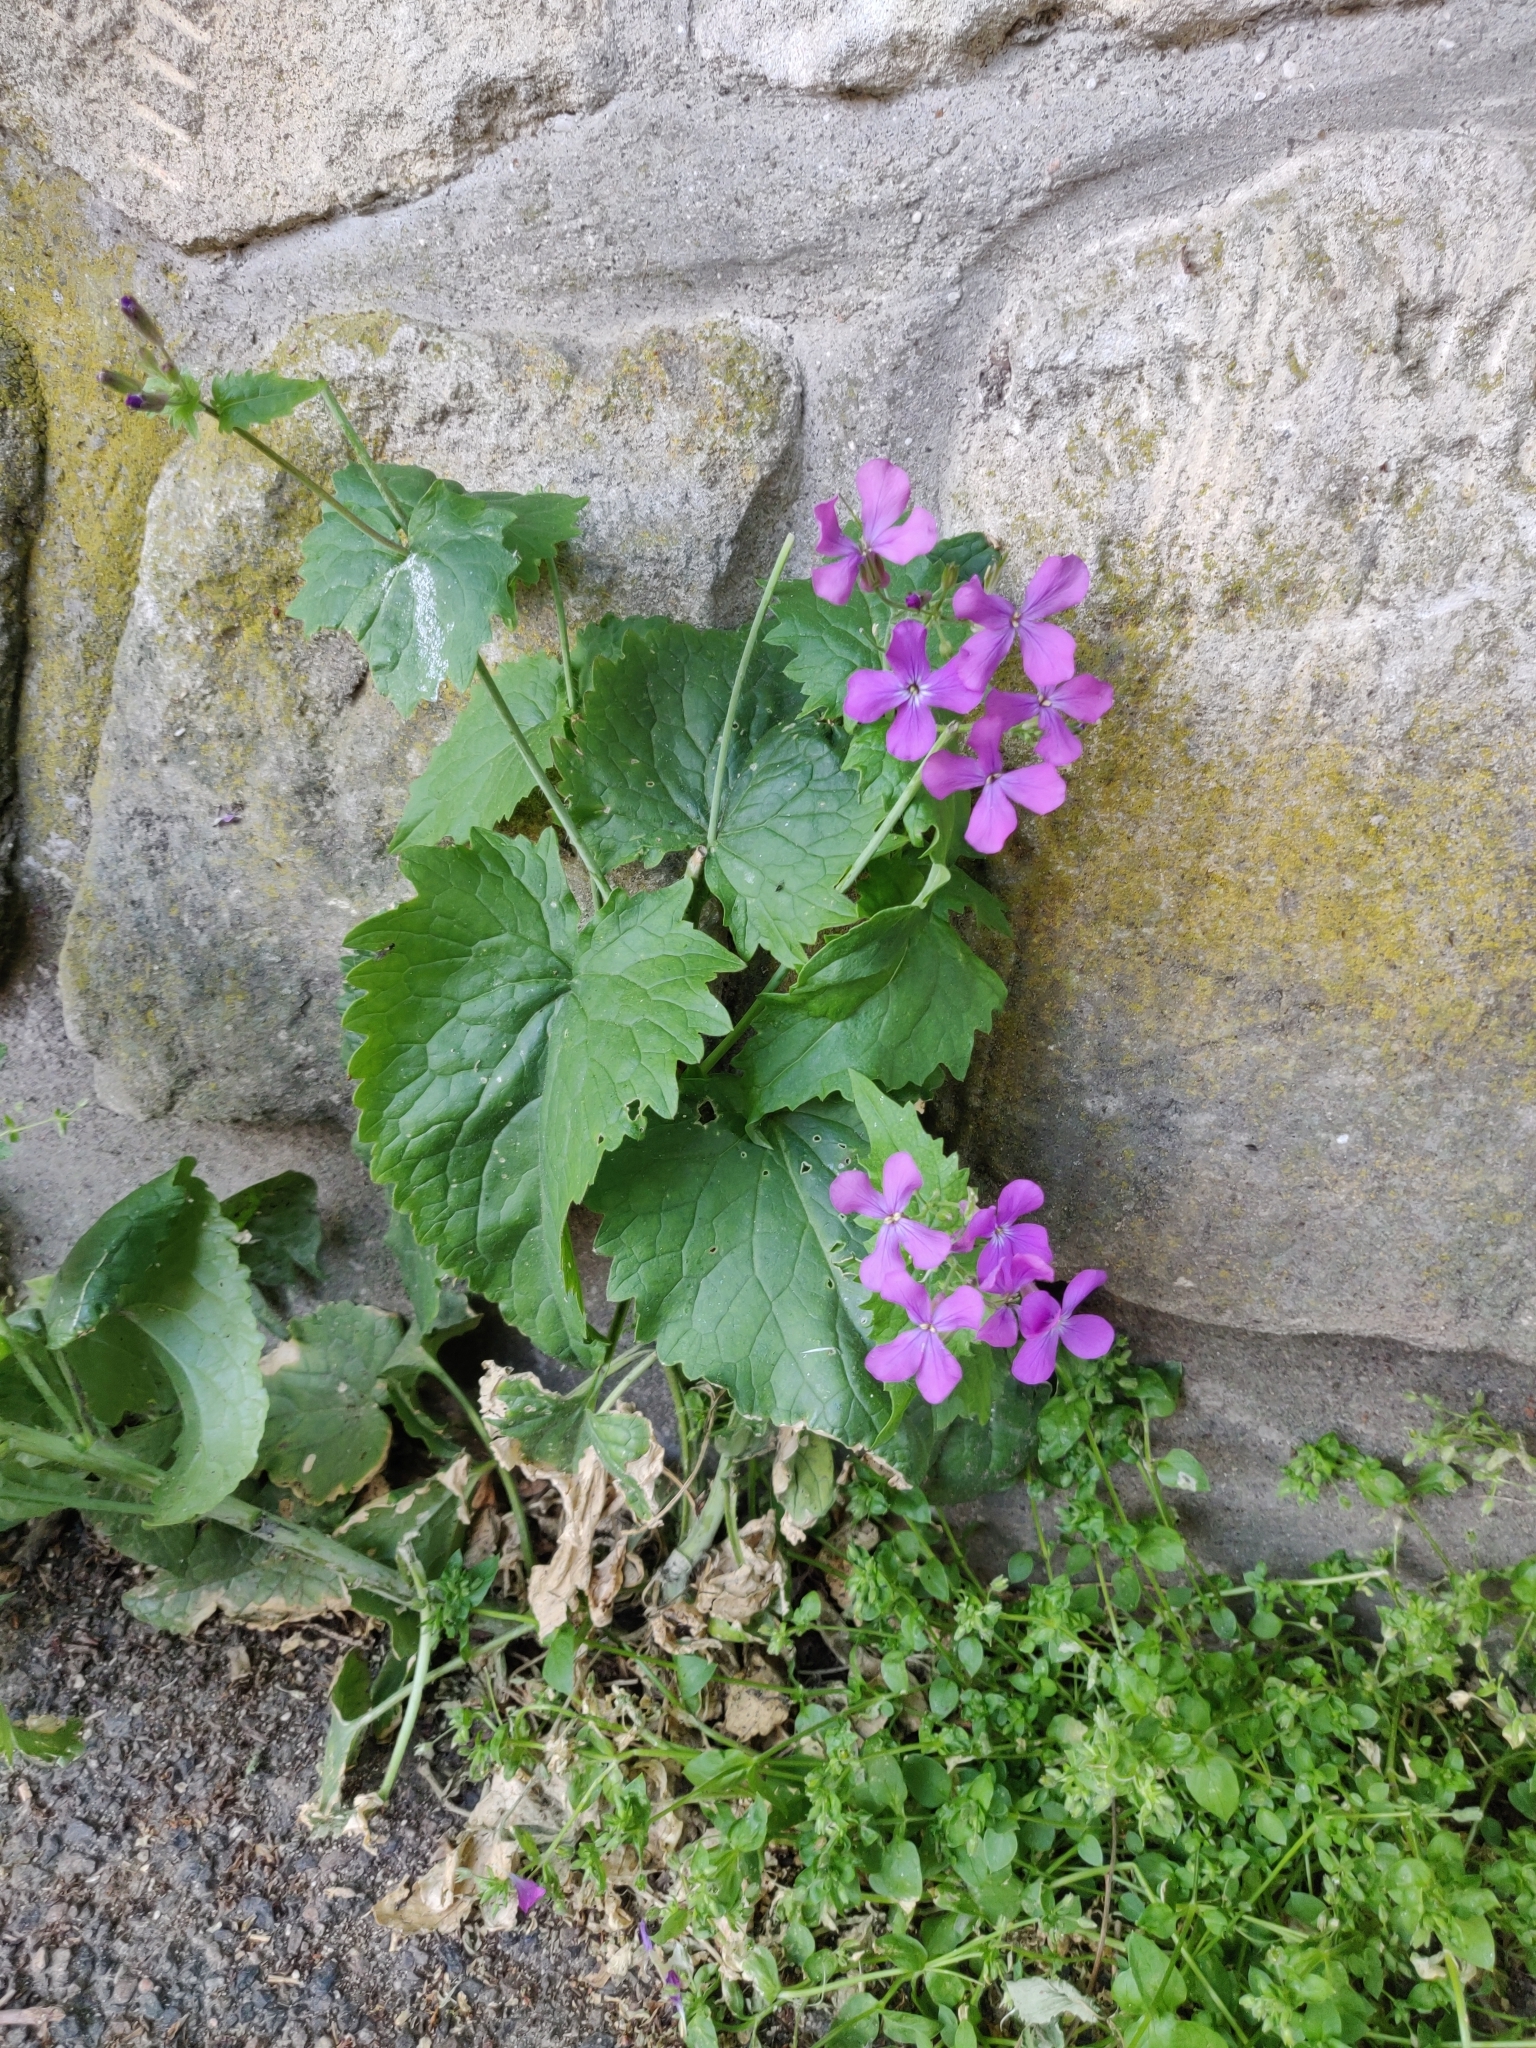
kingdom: Plantae
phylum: Tracheophyta
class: Magnoliopsida
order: Brassicales
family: Brassicaceae
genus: Lunaria
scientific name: Lunaria annua
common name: Honesty
